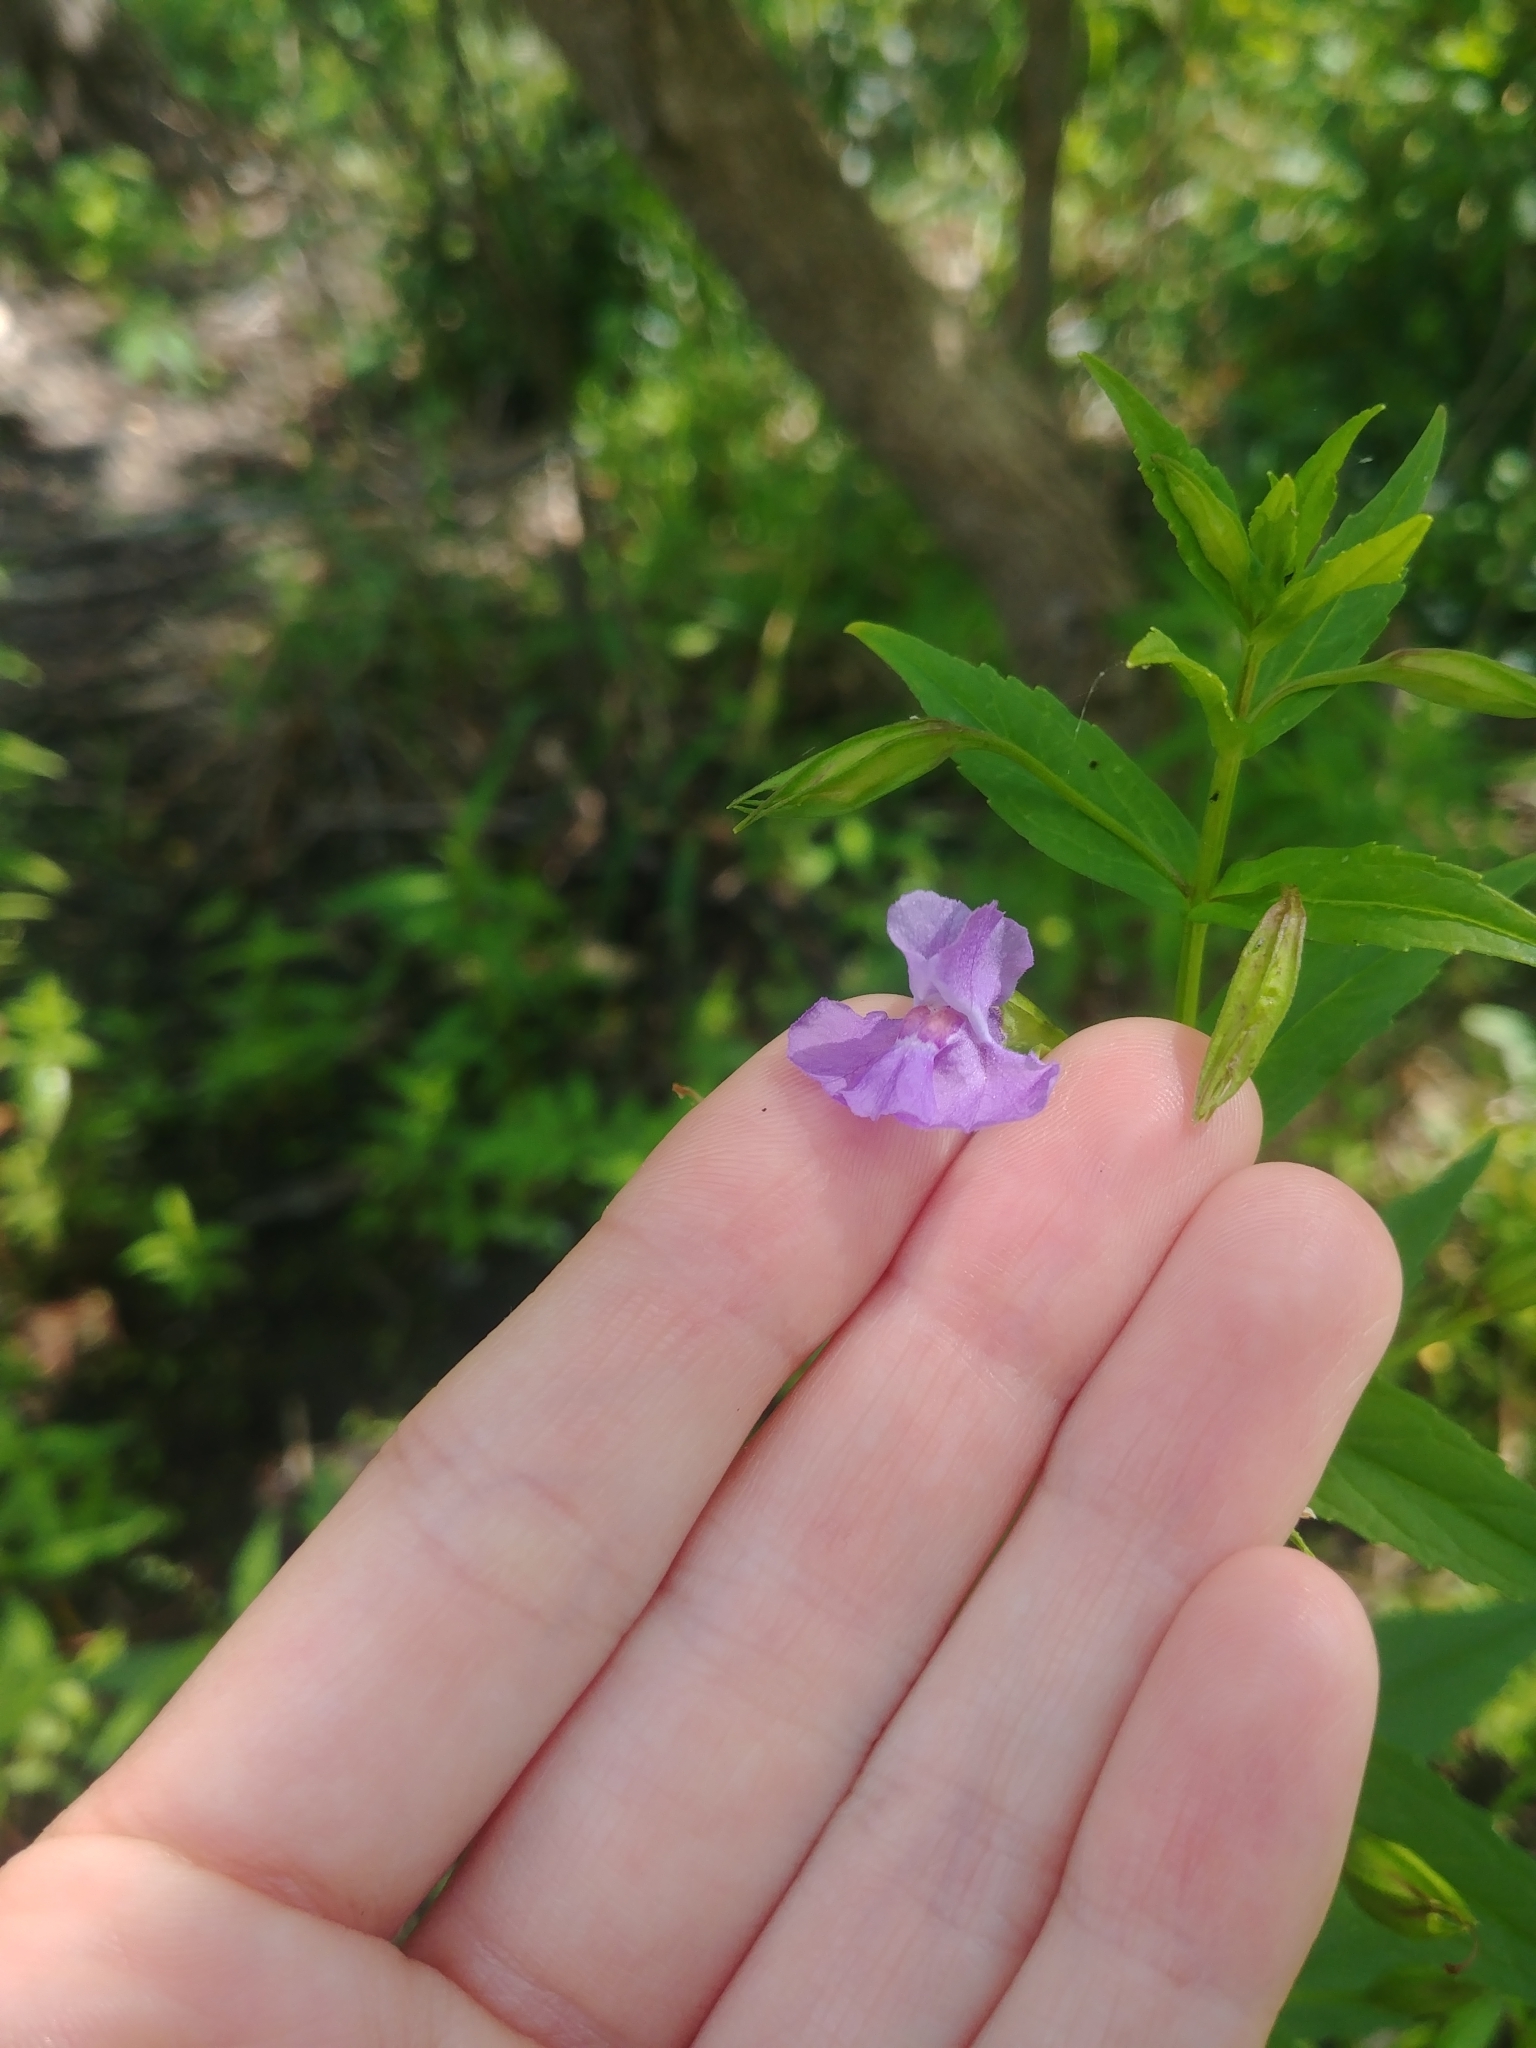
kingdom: Plantae
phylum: Tracheophyta
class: Magnoliopsida
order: Lamiales
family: Phrymaceae
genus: Mimulus
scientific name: Mimulus ringens
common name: Allegheny monkeyflower
